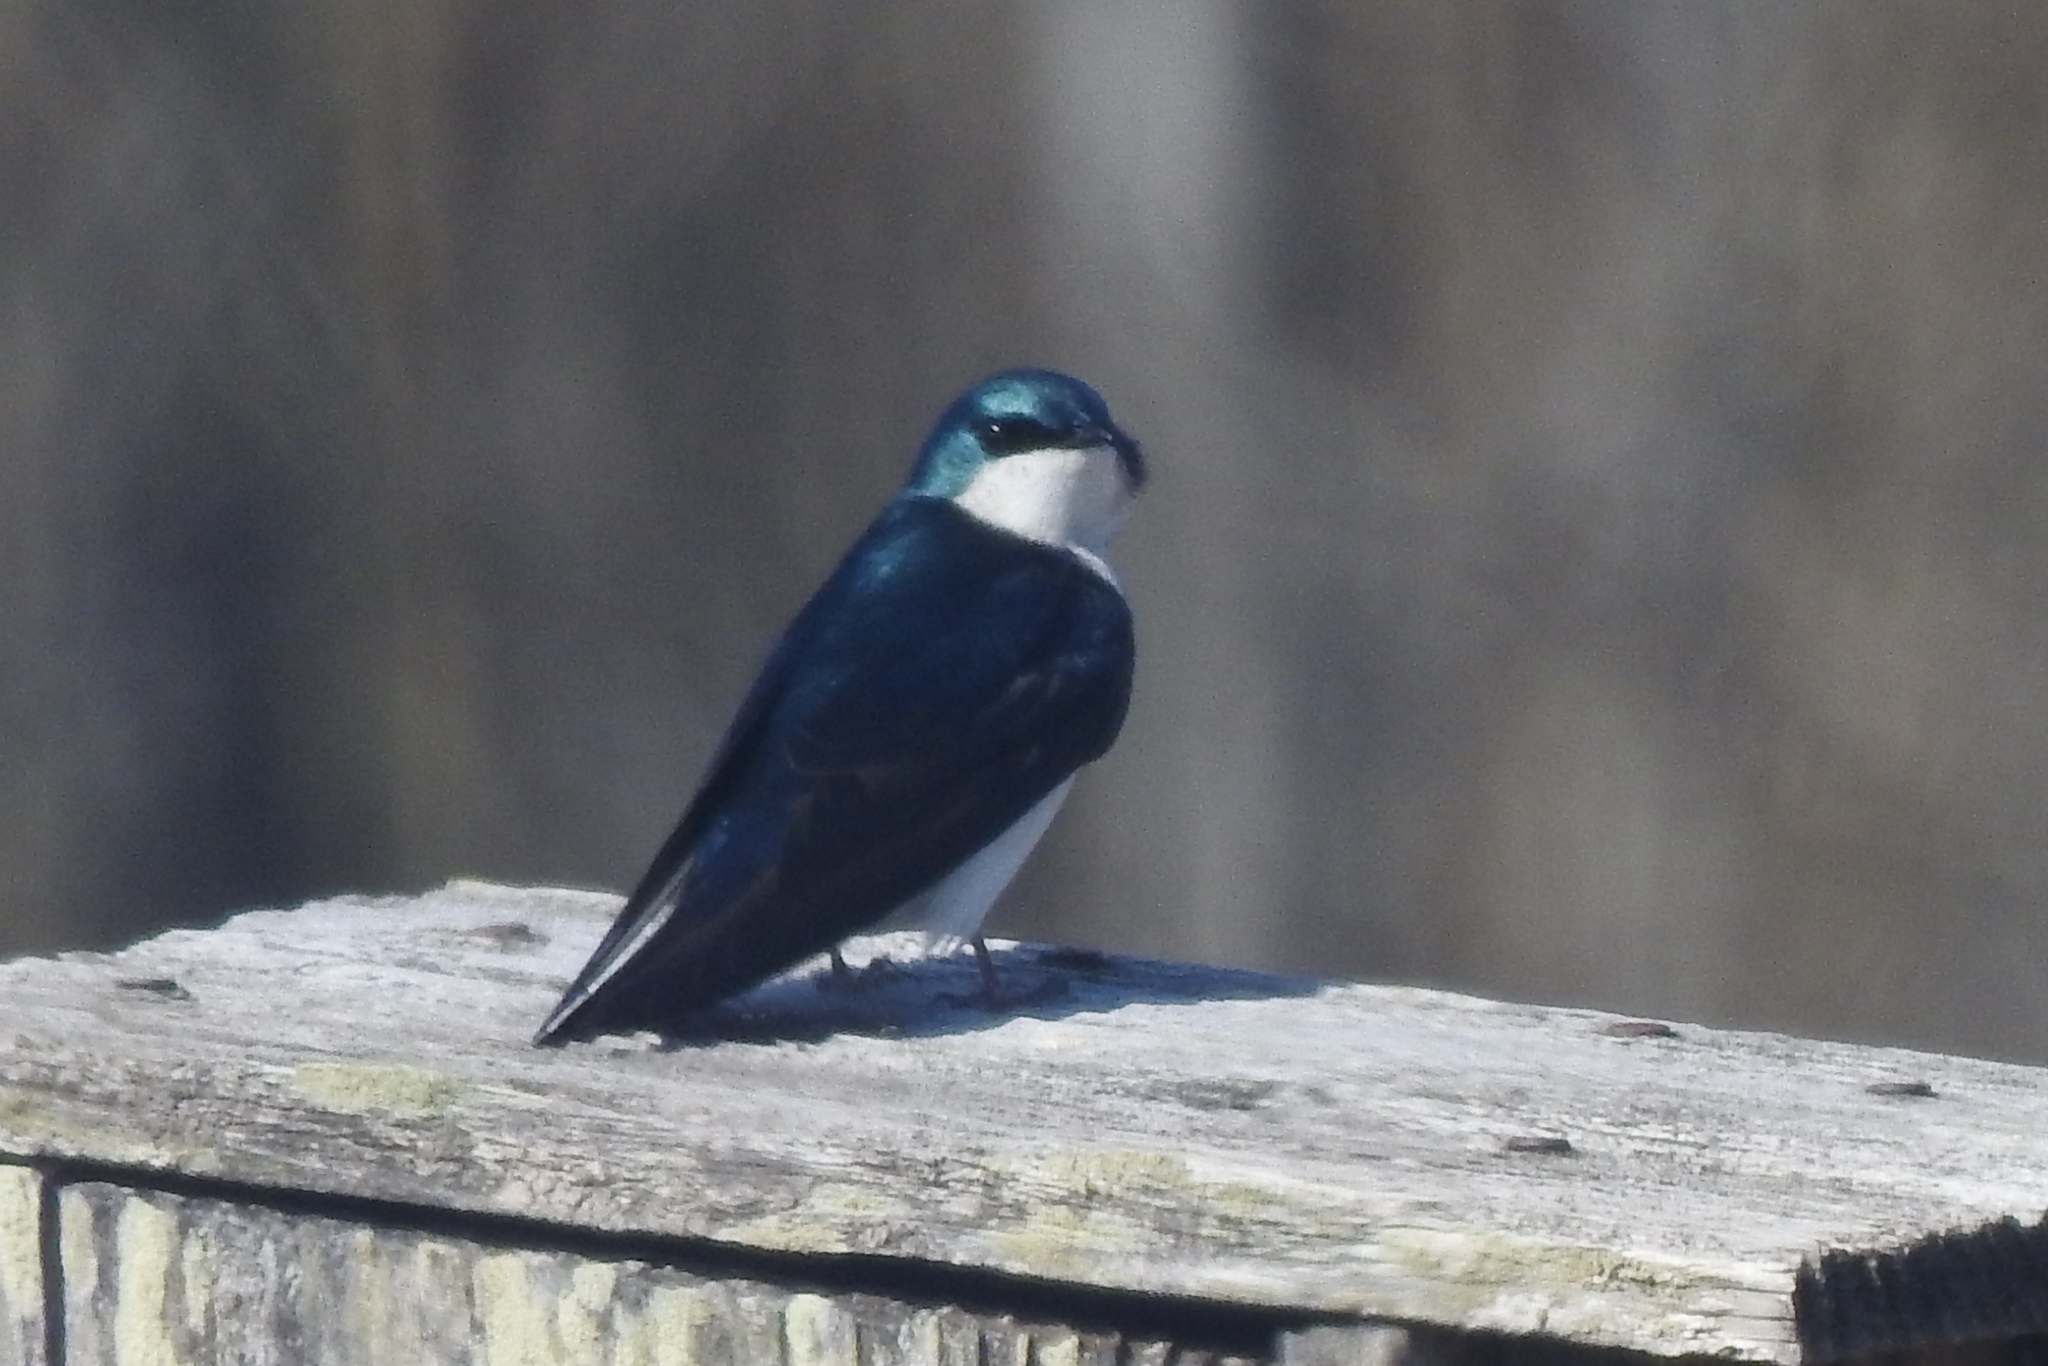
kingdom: Animalia
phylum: Chordata
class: Aves
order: Passeriformes
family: Hirundinidae
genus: Tachycineta
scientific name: Tachycineta bicolor
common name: Tree swallow
